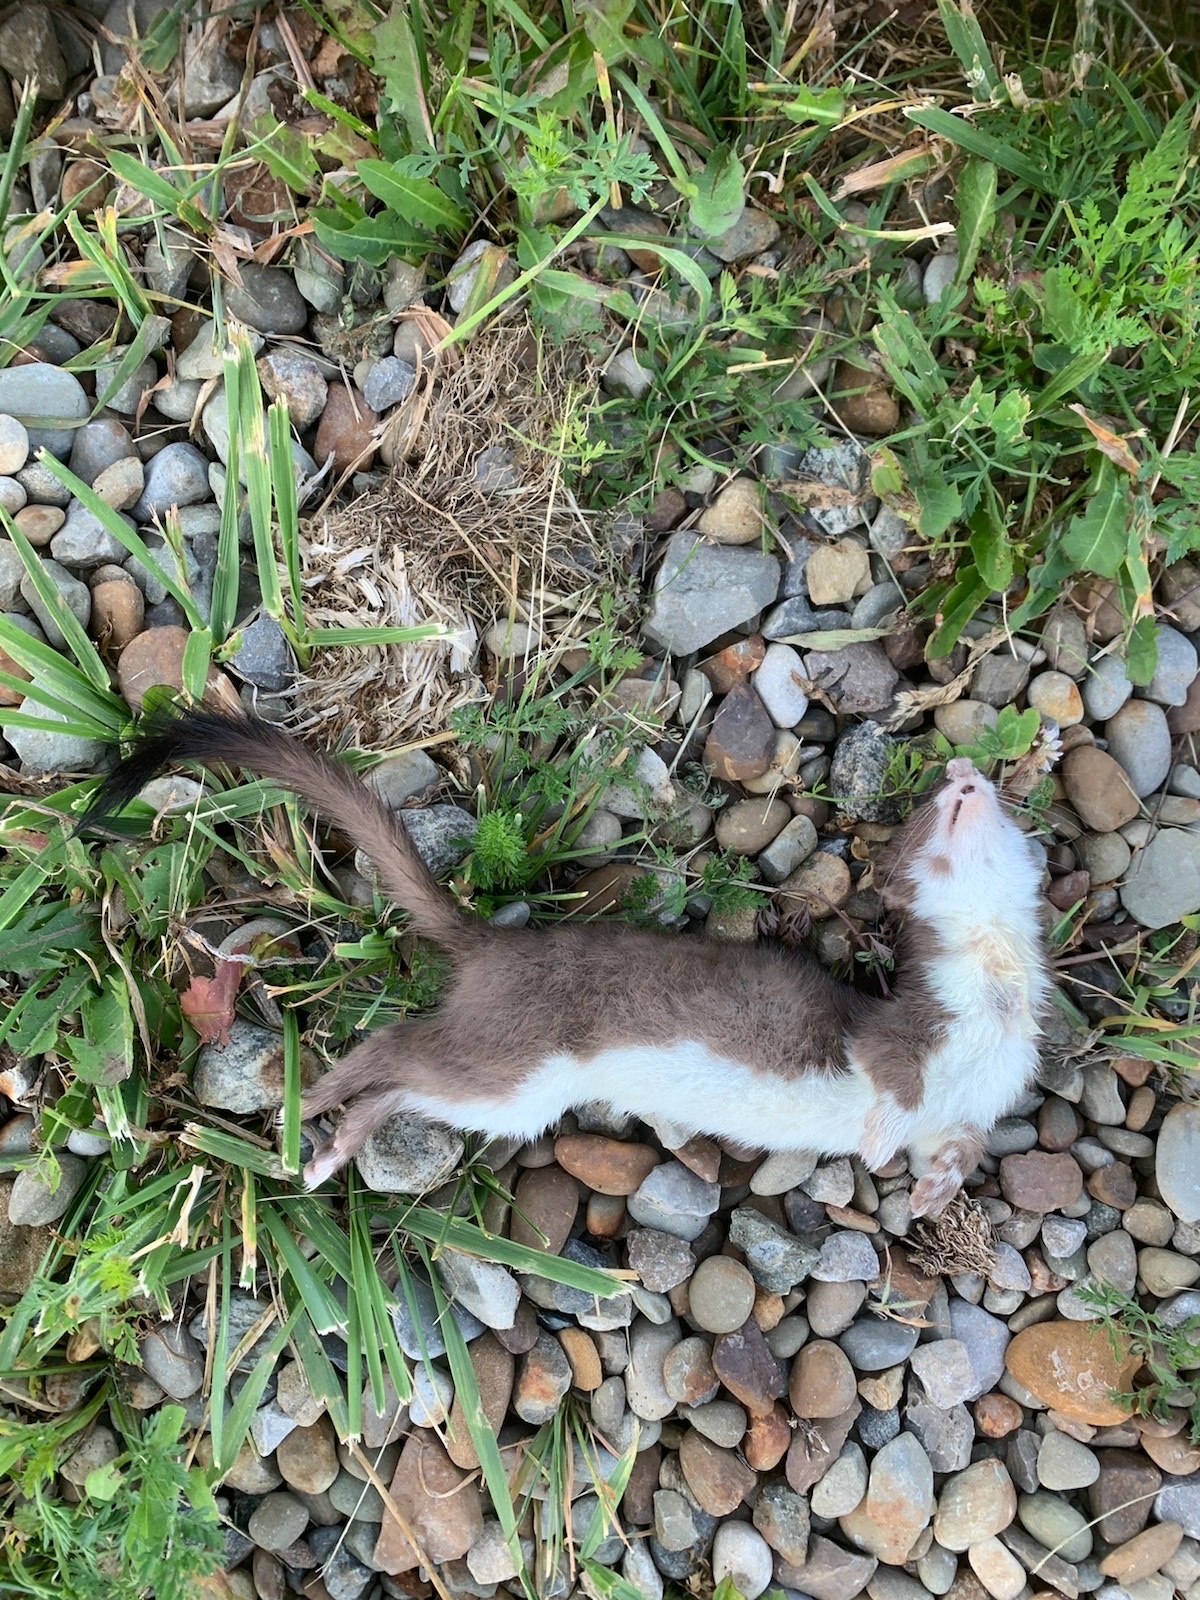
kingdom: Animalia
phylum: Chordata
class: Mammalia
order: Carnivora
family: Mustelidae
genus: Mustela
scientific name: Mustela
